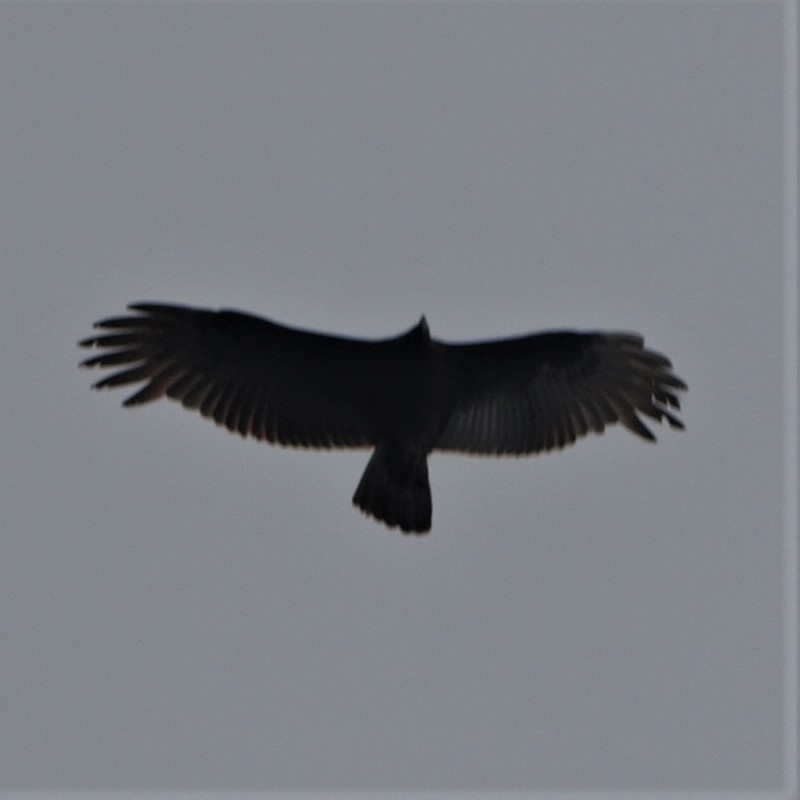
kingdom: Animalia
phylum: Chordata
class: Aves
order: Accipitriformes
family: Cathartidae
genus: Cathartes
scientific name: Cathartes aura
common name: Turkey vulture
